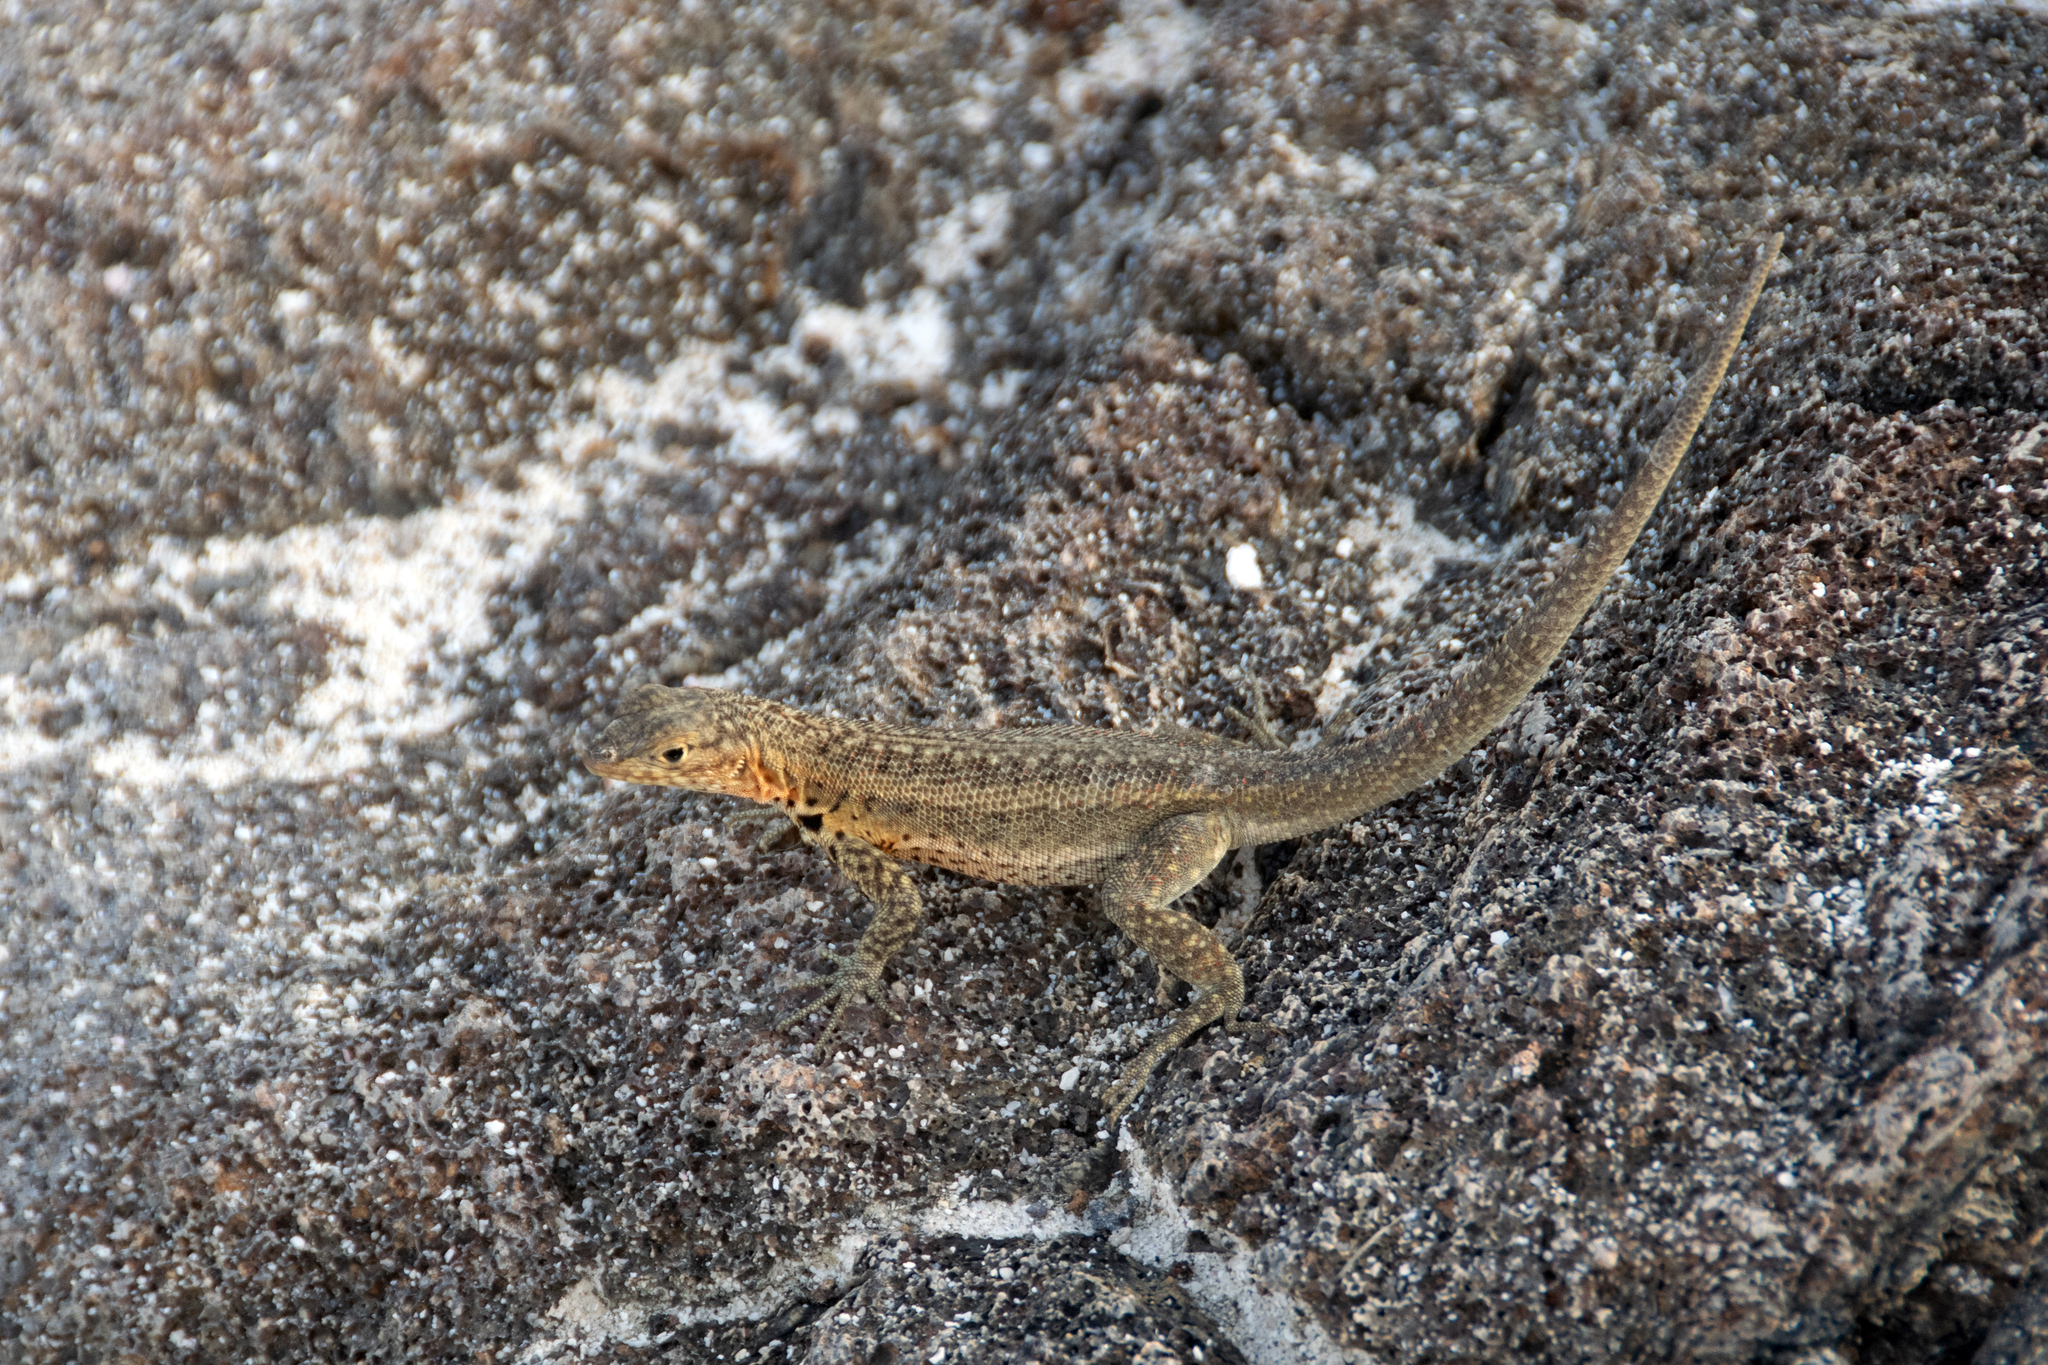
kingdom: Animalia
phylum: Chordata
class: Squamata
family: Tropiduridae
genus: Microlophus
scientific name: Microlophus jacobii
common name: Santiago lava lizard
